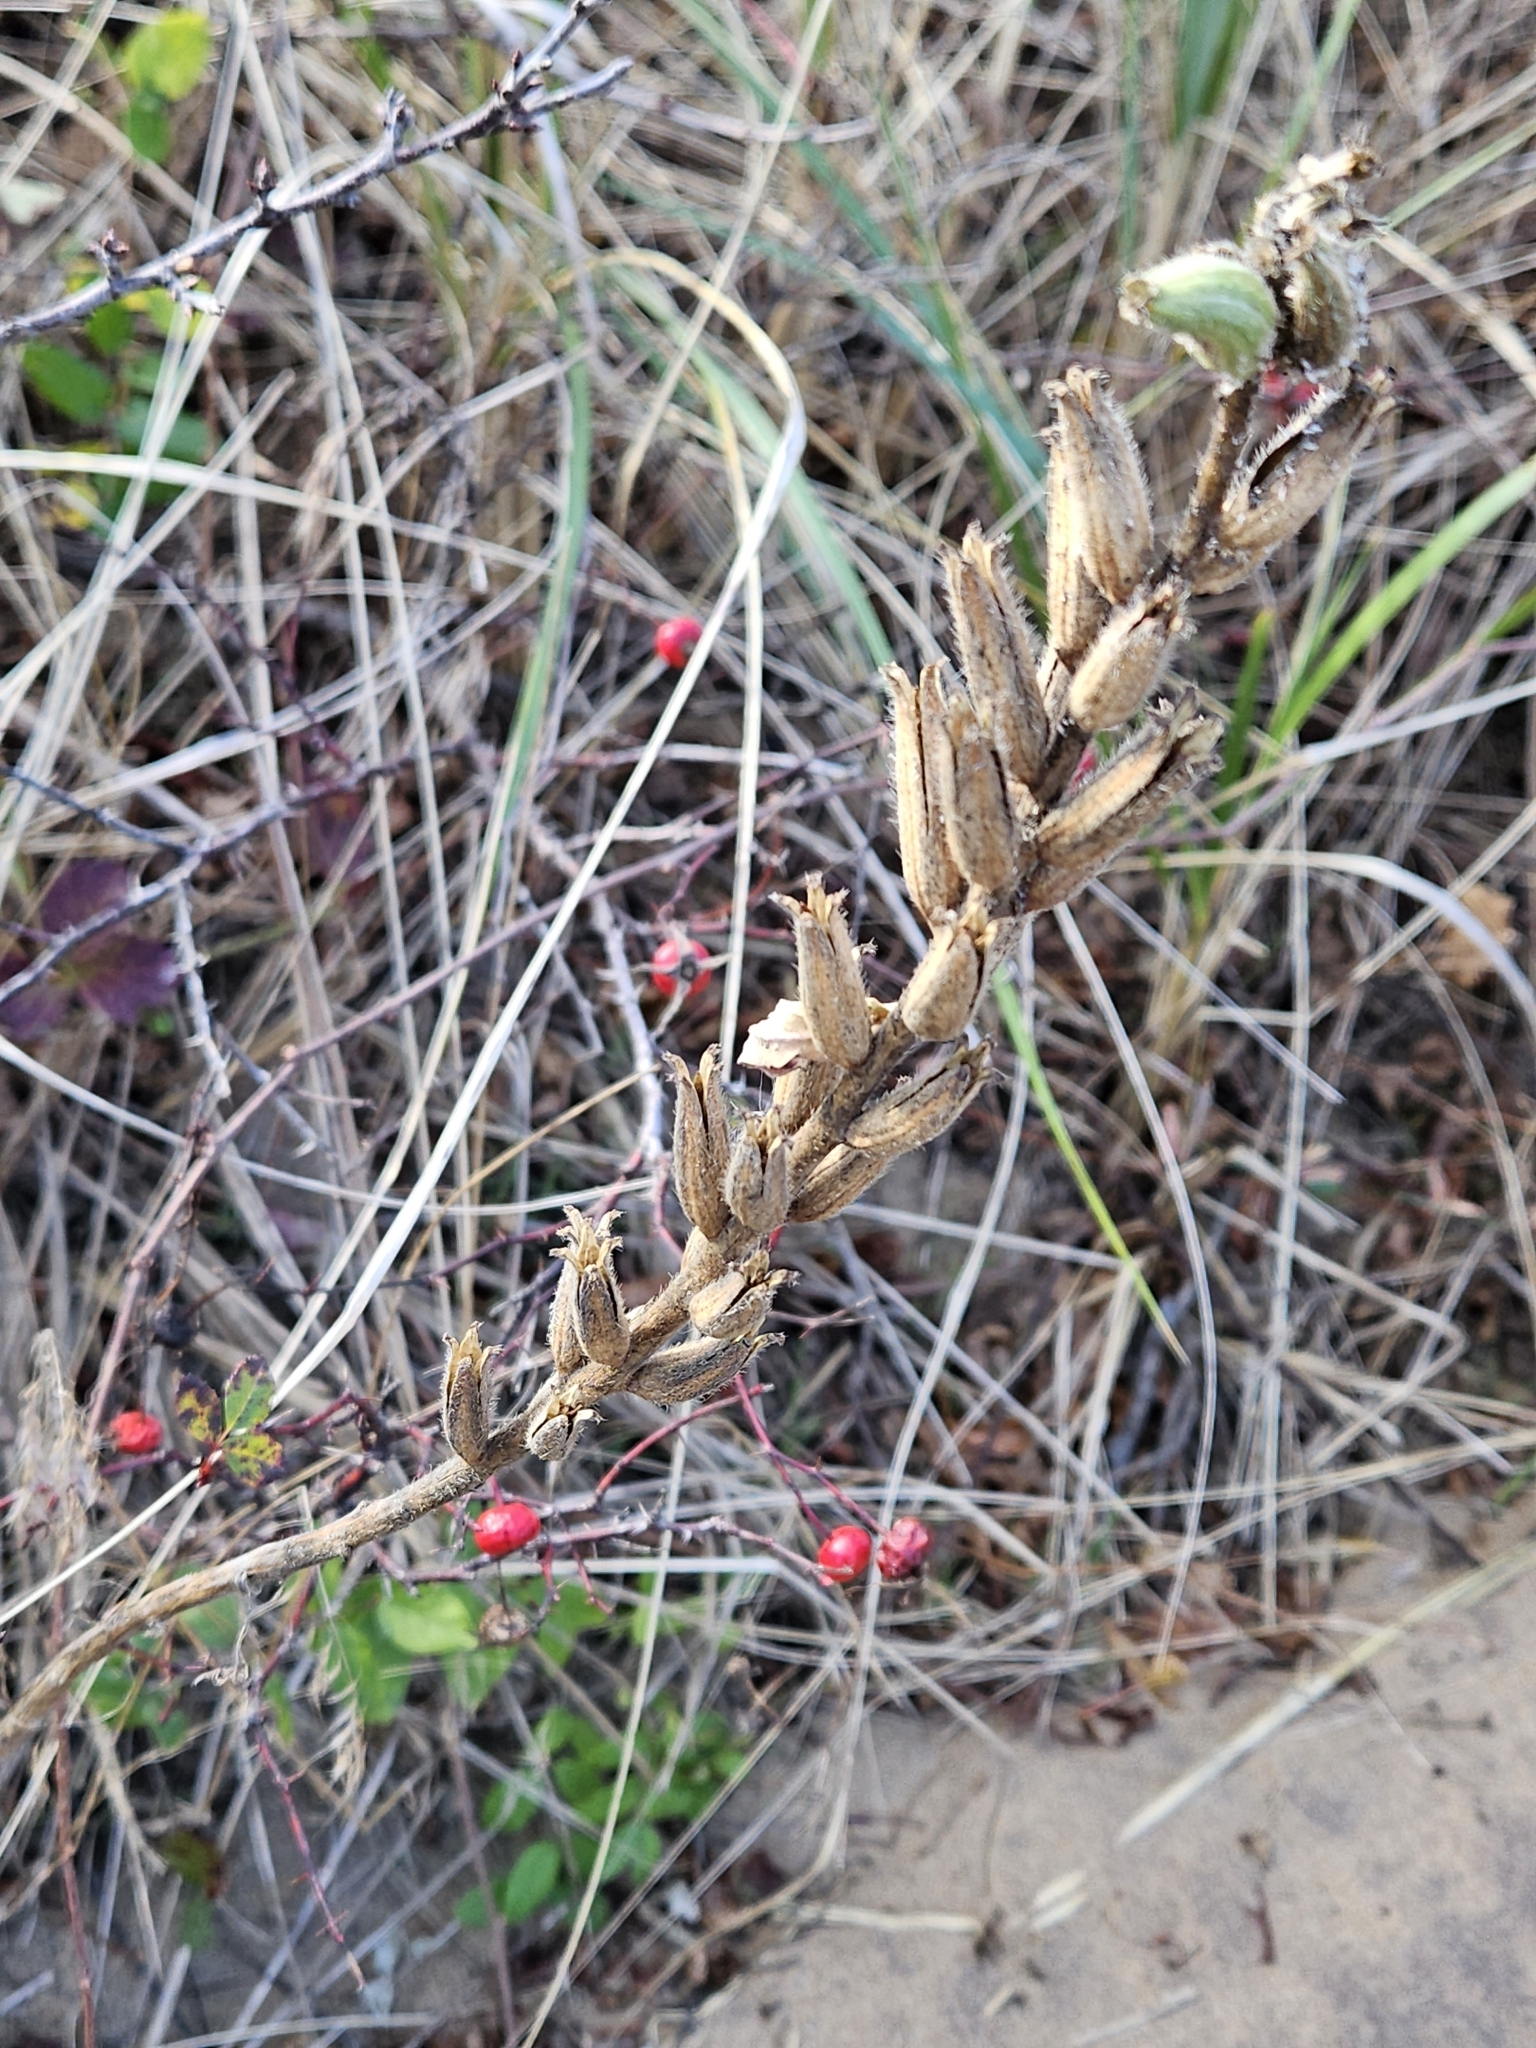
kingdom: Plantae
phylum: Tracheophyta
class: Magnoliopsida
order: Myrtales
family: Onagraceae
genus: Oenothera
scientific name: Oenothera biennis
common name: Common evening-primrose
